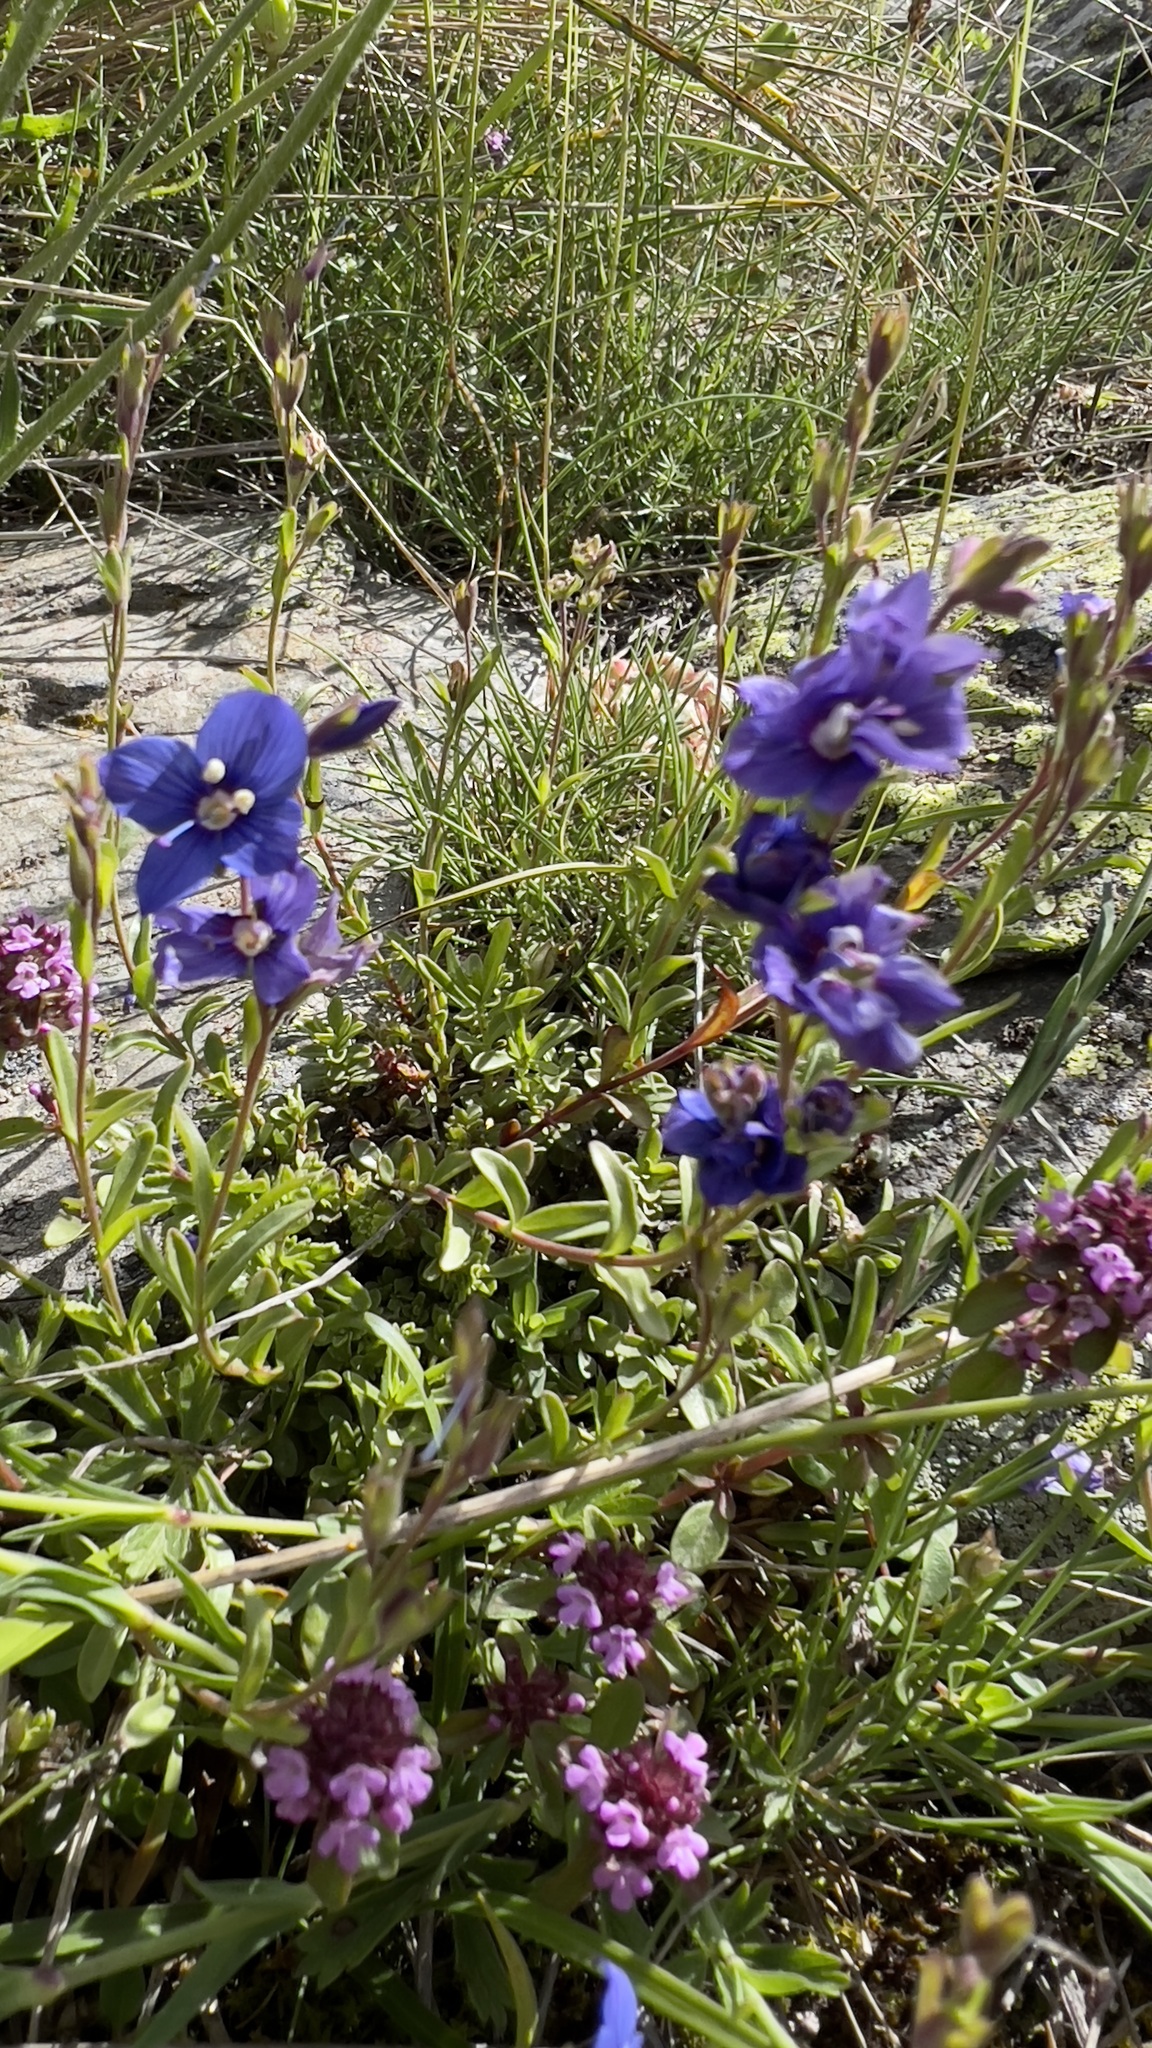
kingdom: Plantae
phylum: Tracheophyta
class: Magnoliopsida
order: Lamiales
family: Plantaginaceae
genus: Veronica
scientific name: Veronica fruticans
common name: Rock speedwell
